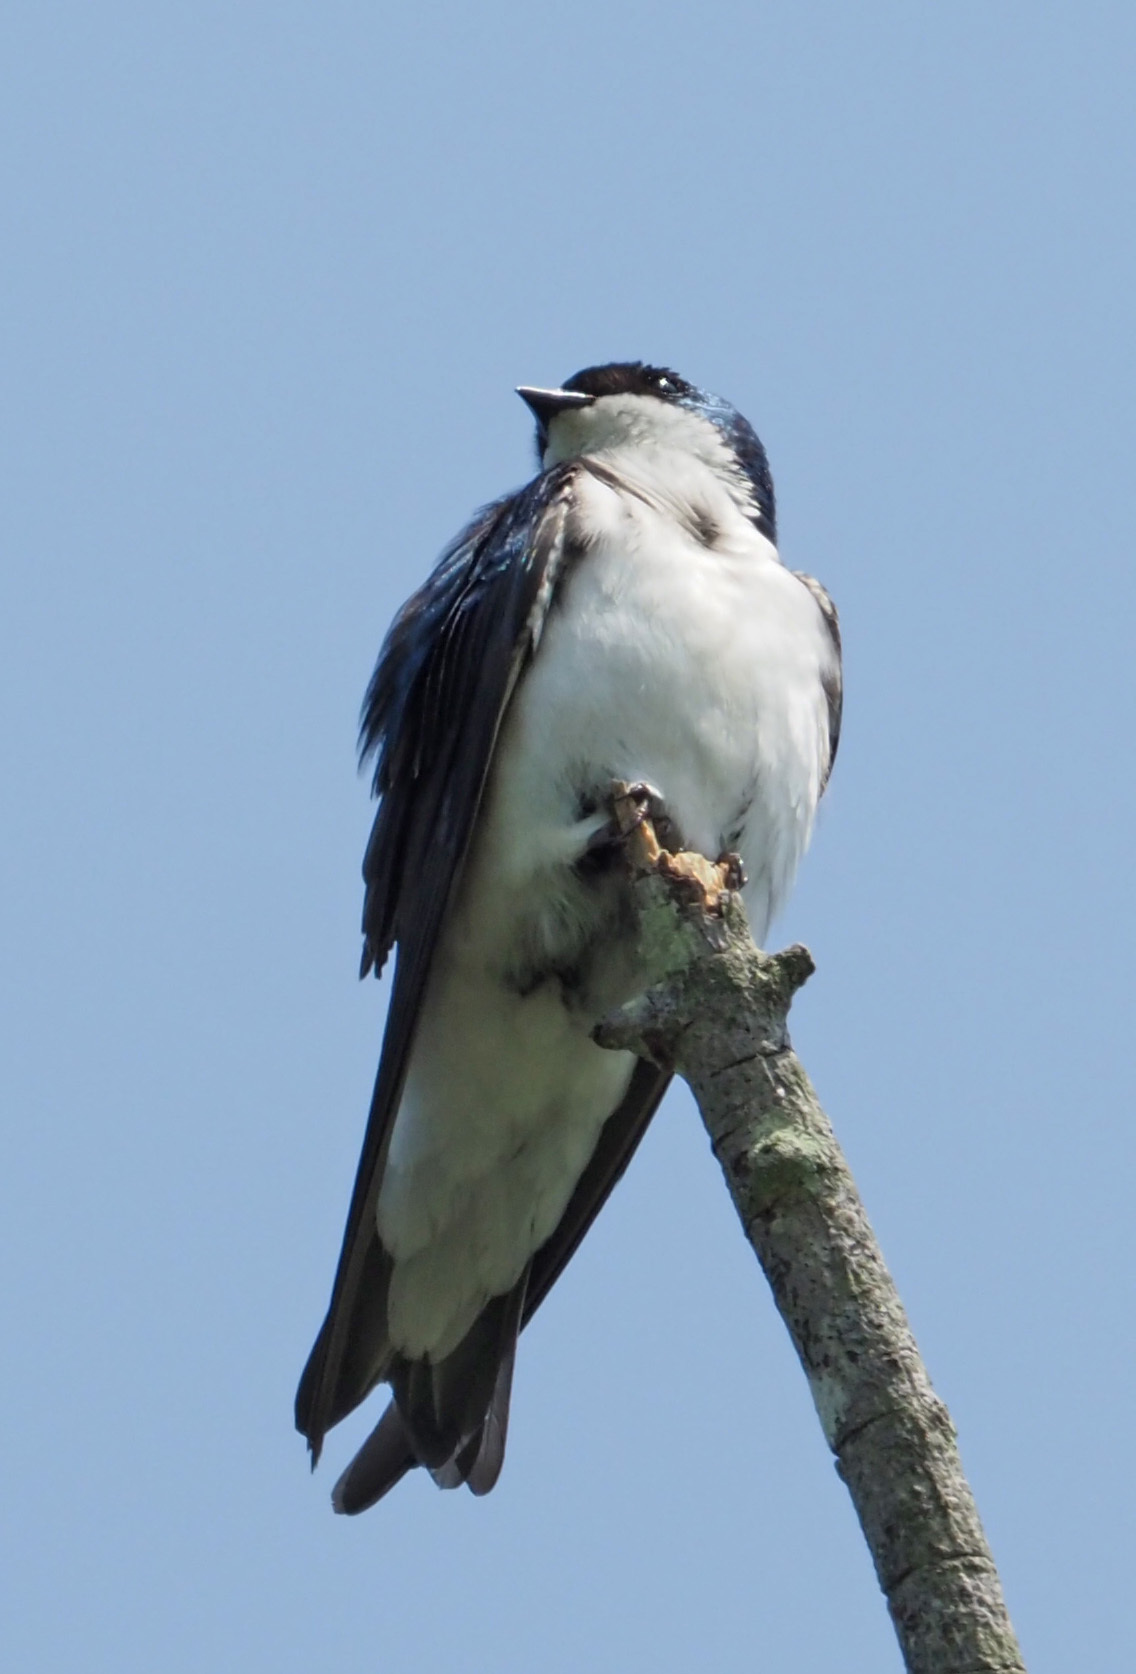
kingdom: Animalia
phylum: Chordata
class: Aves
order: Passeriformes
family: Hirundinidae
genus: Tachycineta
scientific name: Tachycineta bicolor
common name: Tree swallow
